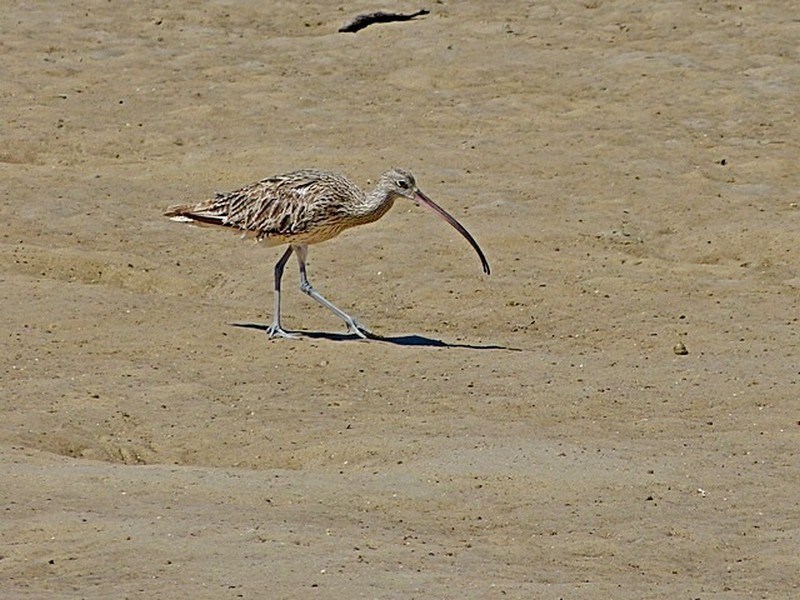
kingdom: Animalia
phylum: Chordata
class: Aves
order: Charadriiformes
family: Scolopacidae
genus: Numenius
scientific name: Numenius madagascariensis
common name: Far eastern curlew
